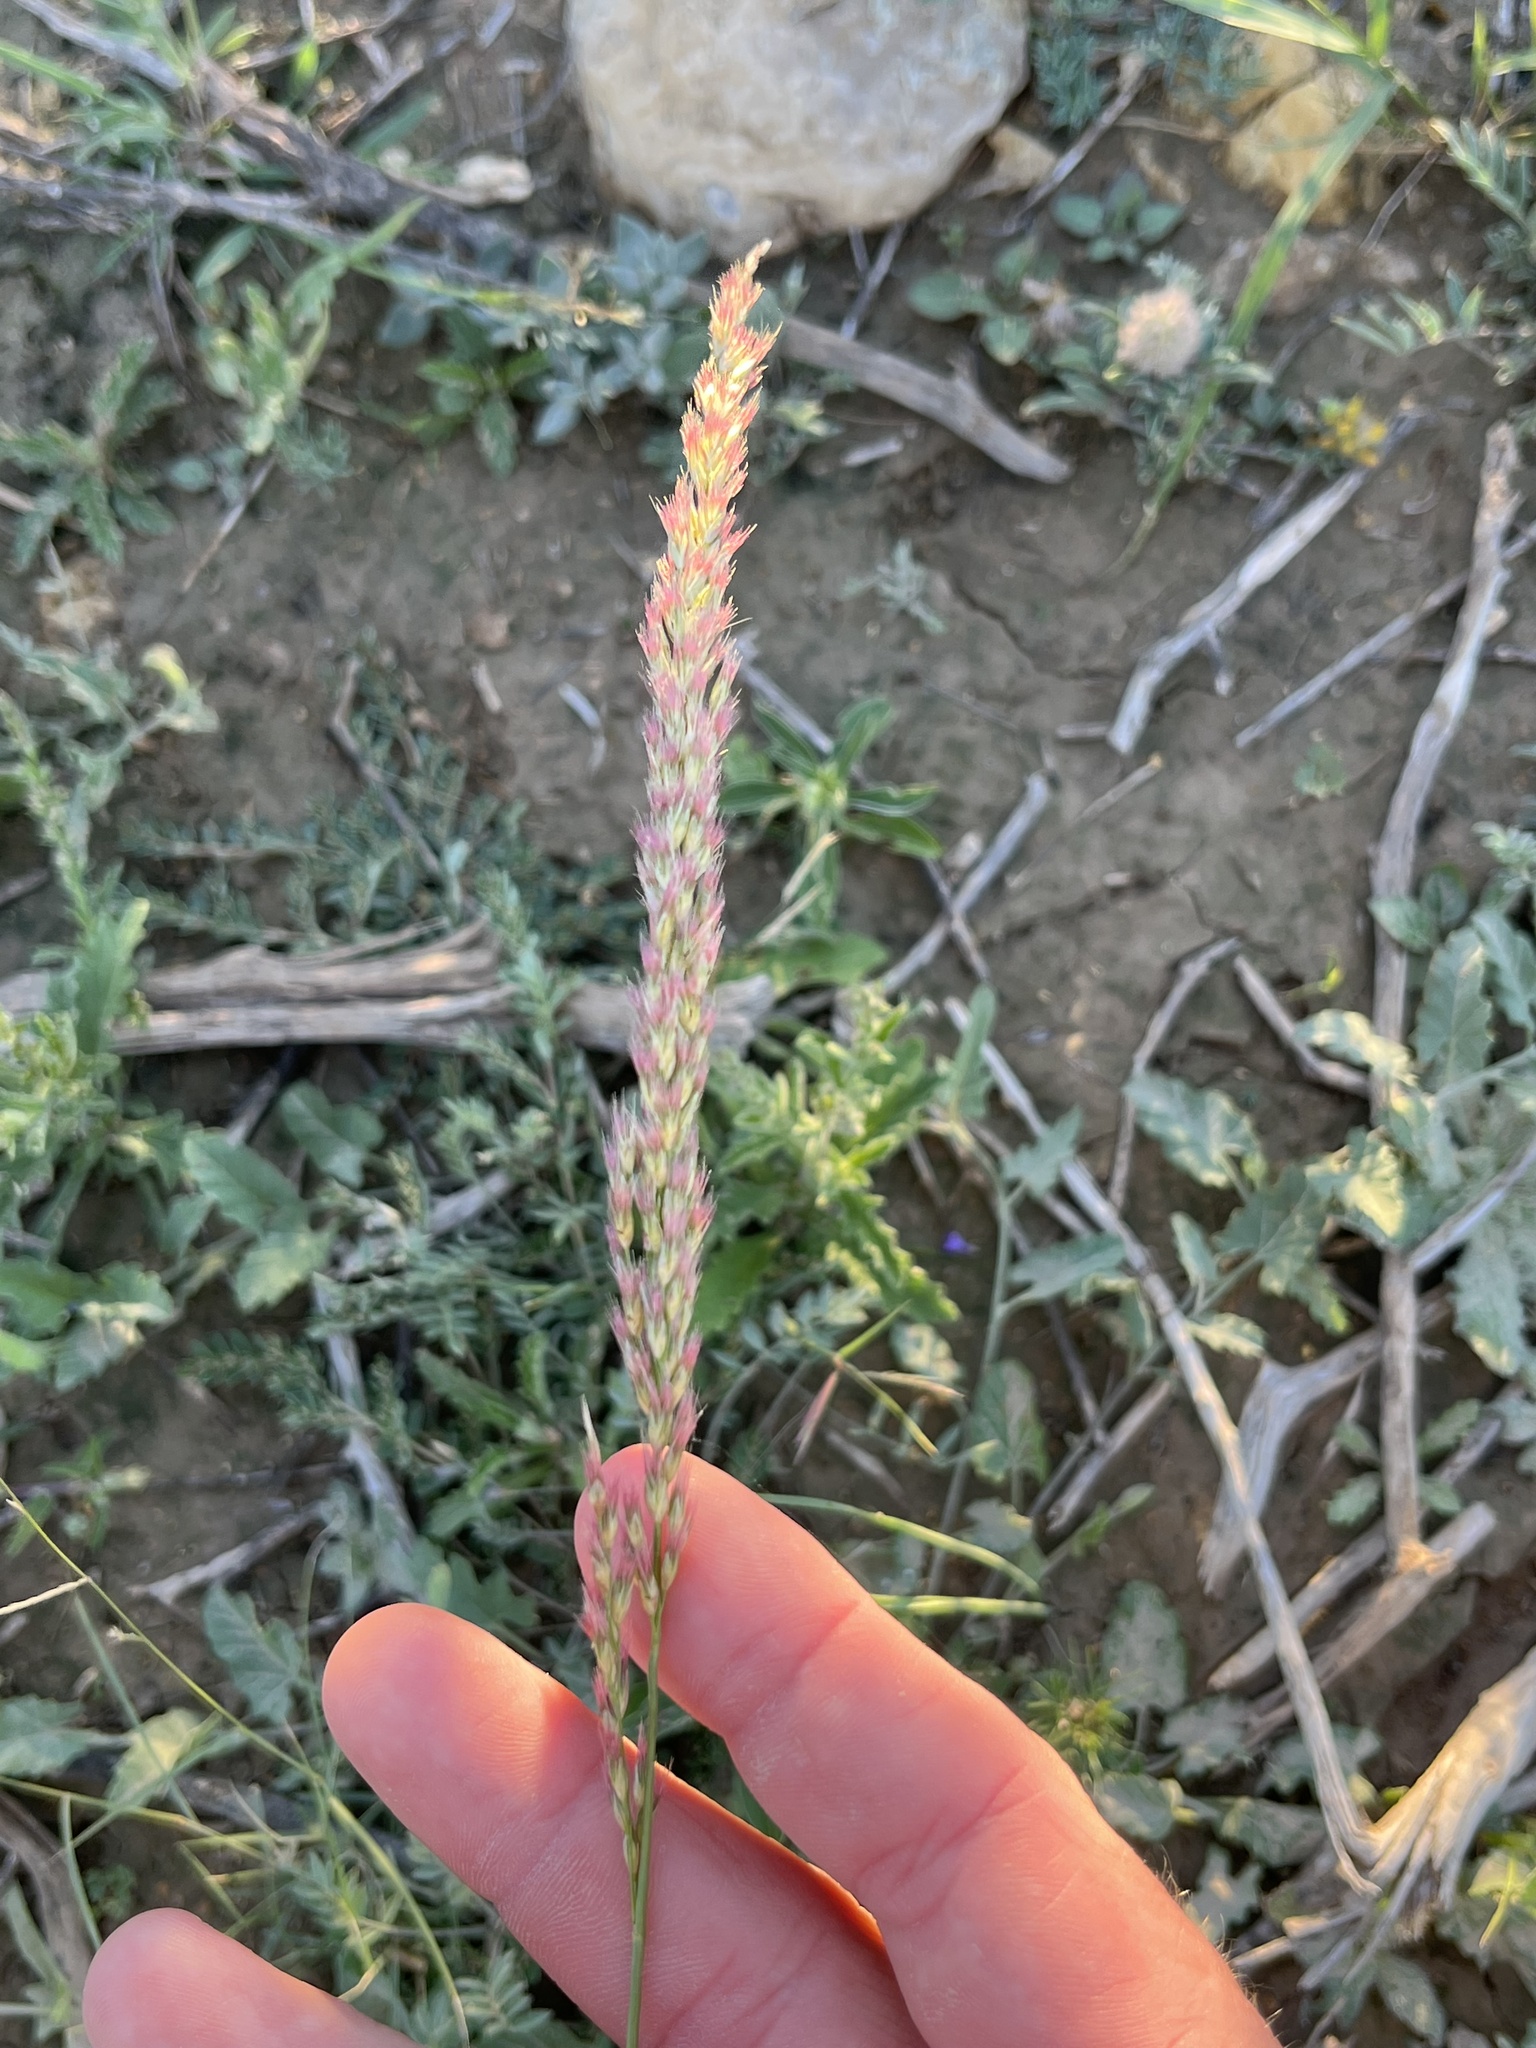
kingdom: Plantae
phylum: Tracheophyta
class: Liliopsida
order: Poales
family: Poaceae
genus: Pappophorum
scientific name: Pappophorum bicolor
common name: Pink pappus grass
